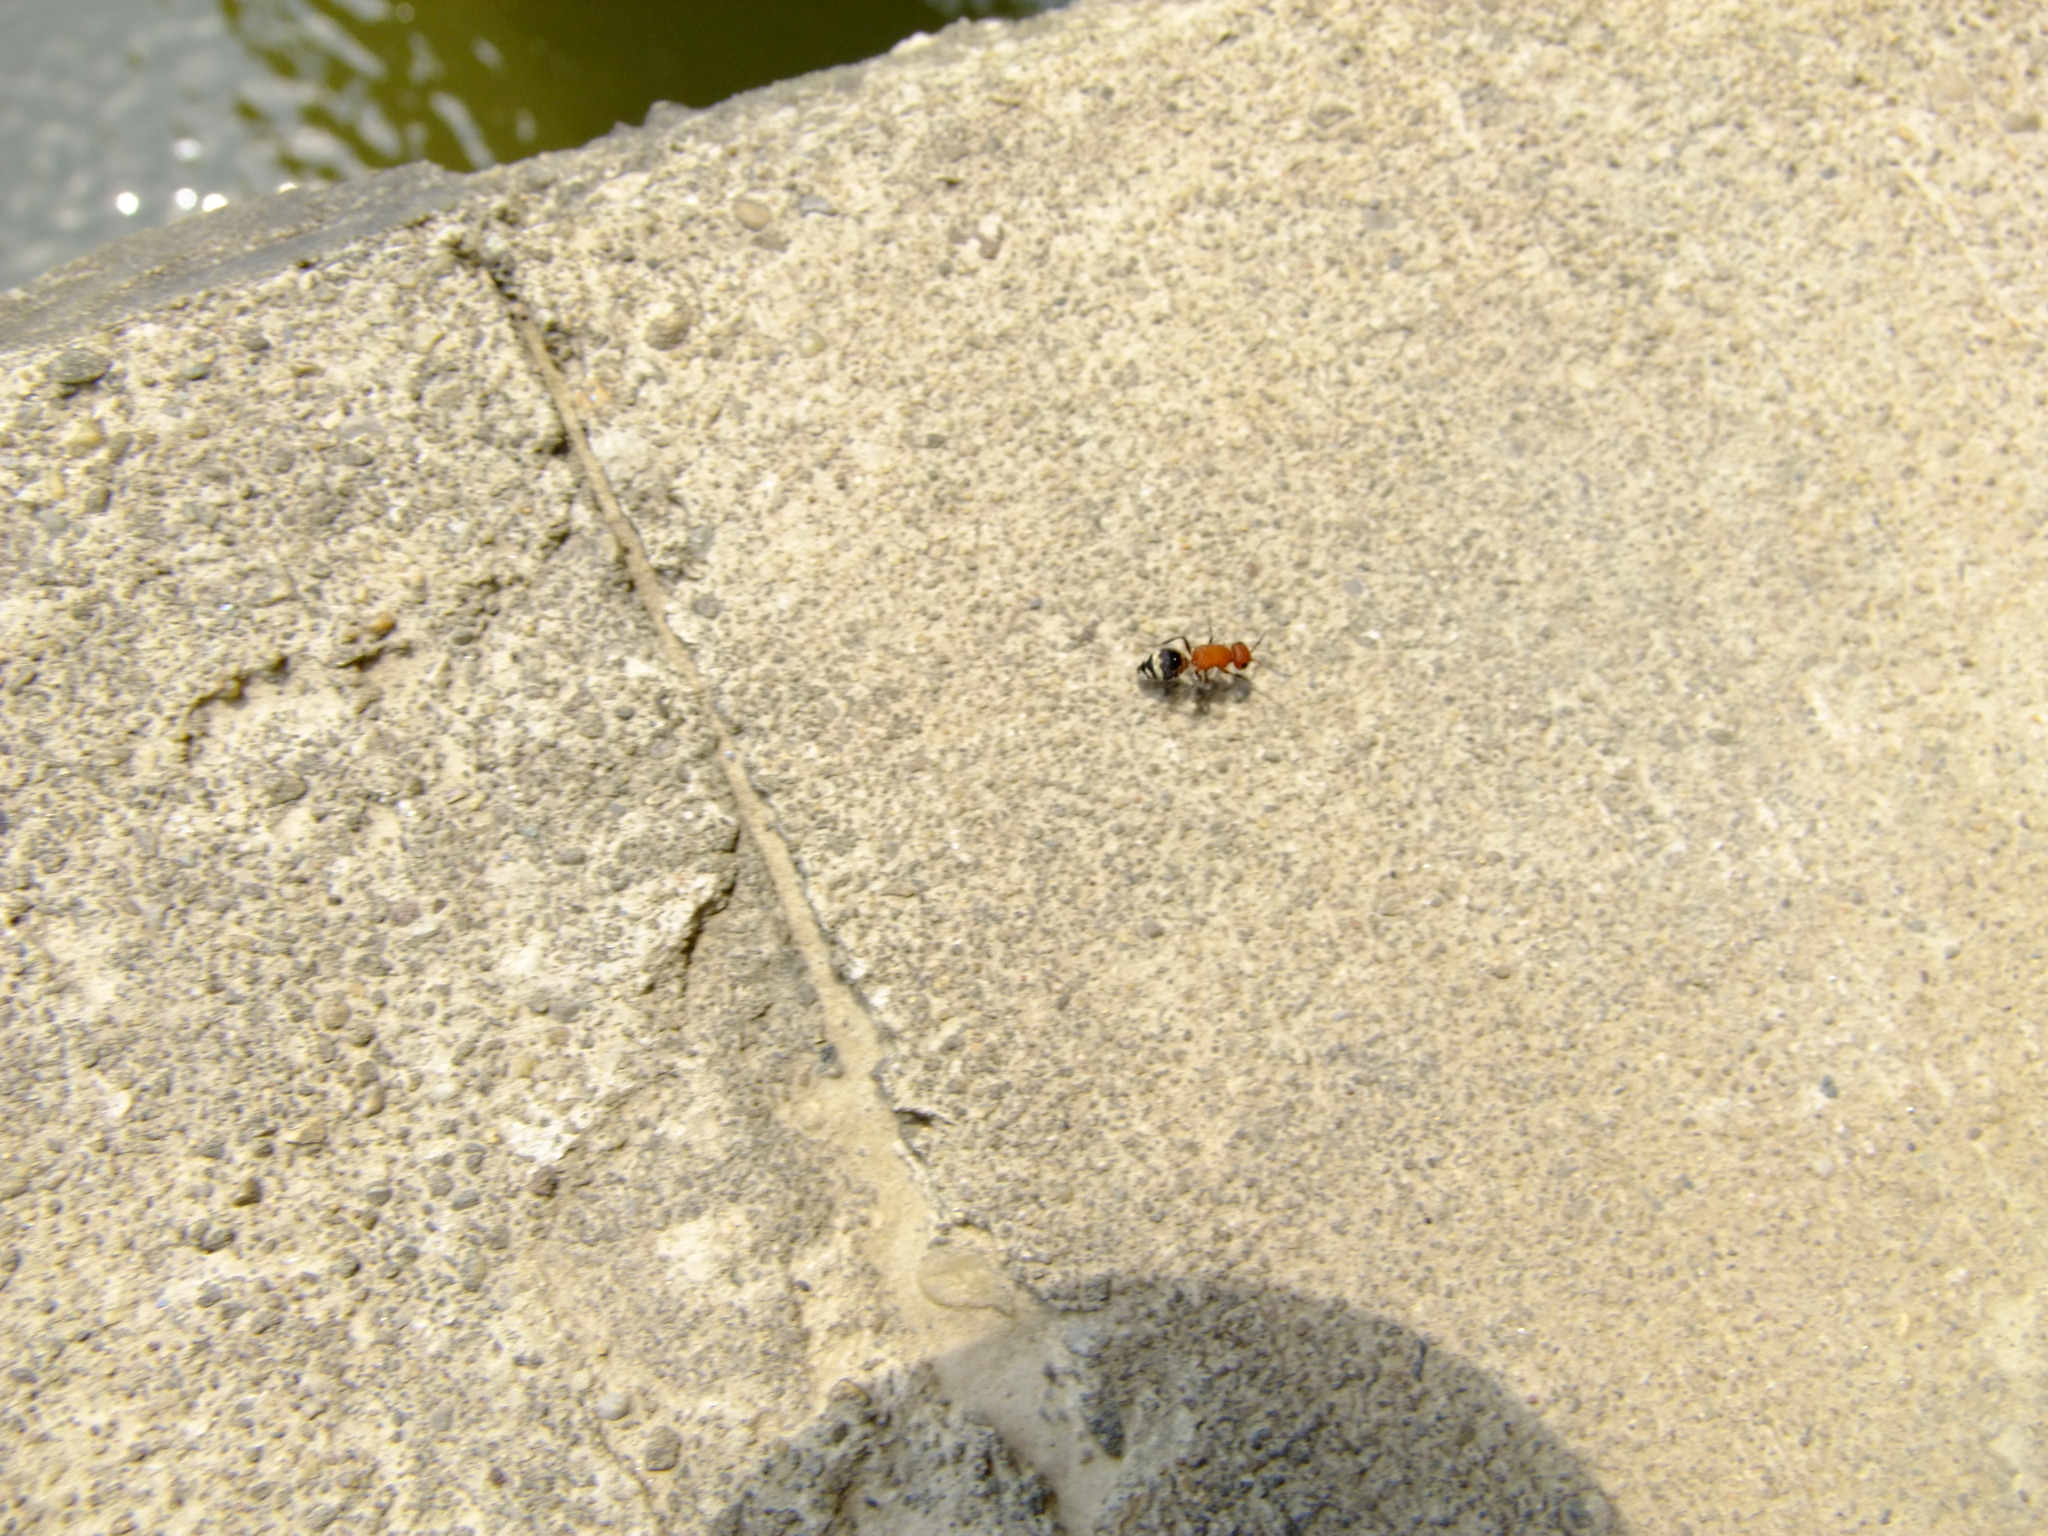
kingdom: Animalia
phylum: Arthropoda
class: Insecta
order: Hymenoptera
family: Mutillidae
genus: Timulla
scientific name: Timulla
